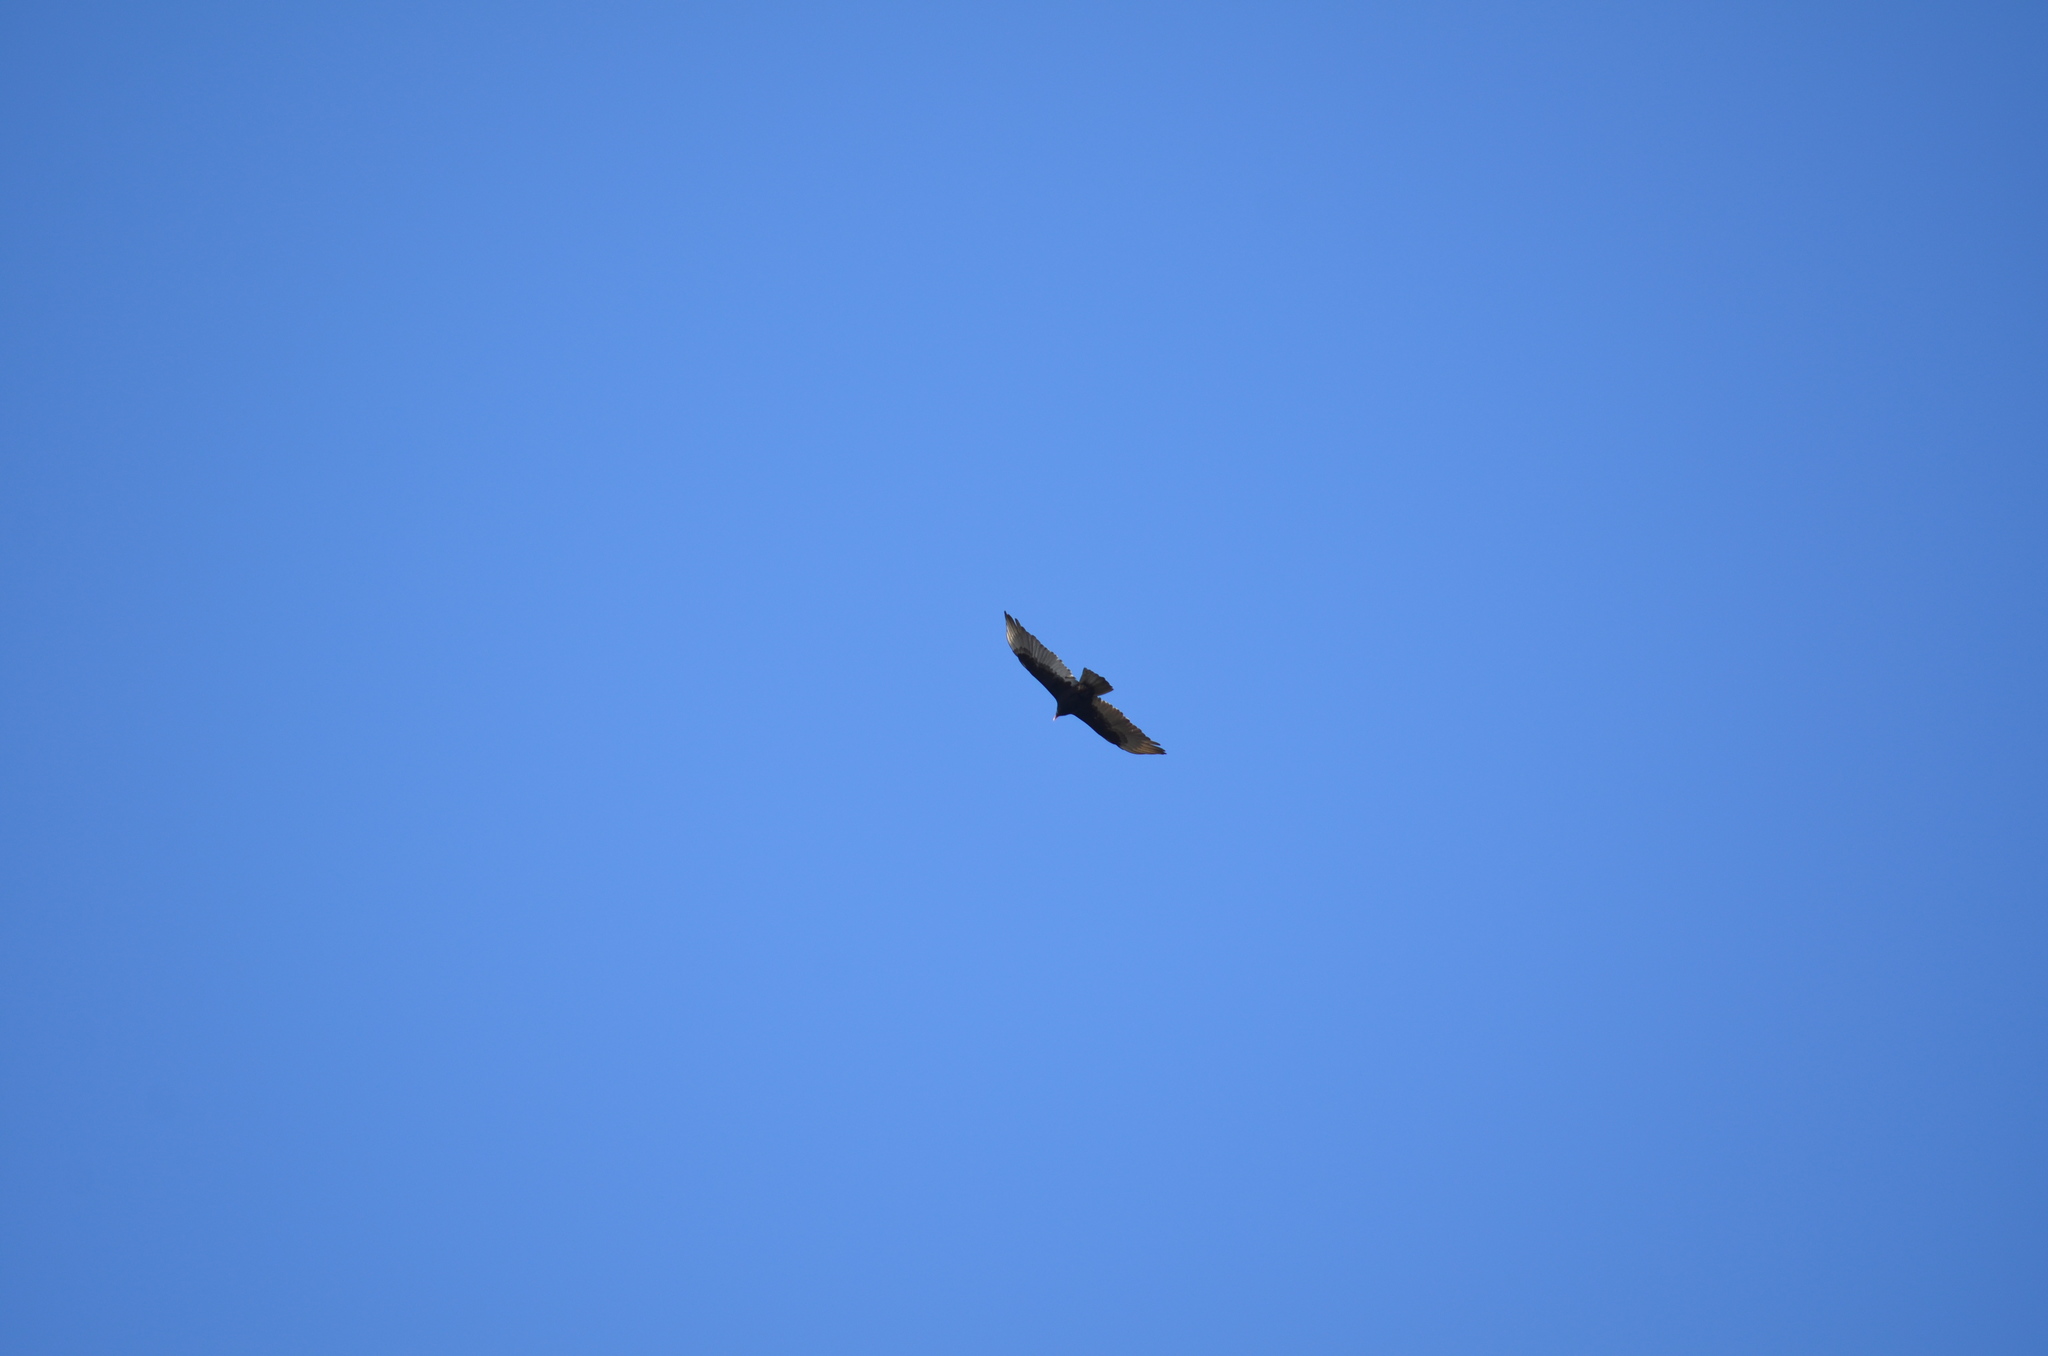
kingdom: Animalia
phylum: Chordata
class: Aves
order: Accipitriformes
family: Cathartidae
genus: Cathartes
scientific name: Cathartes aura
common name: Turkey vulture
